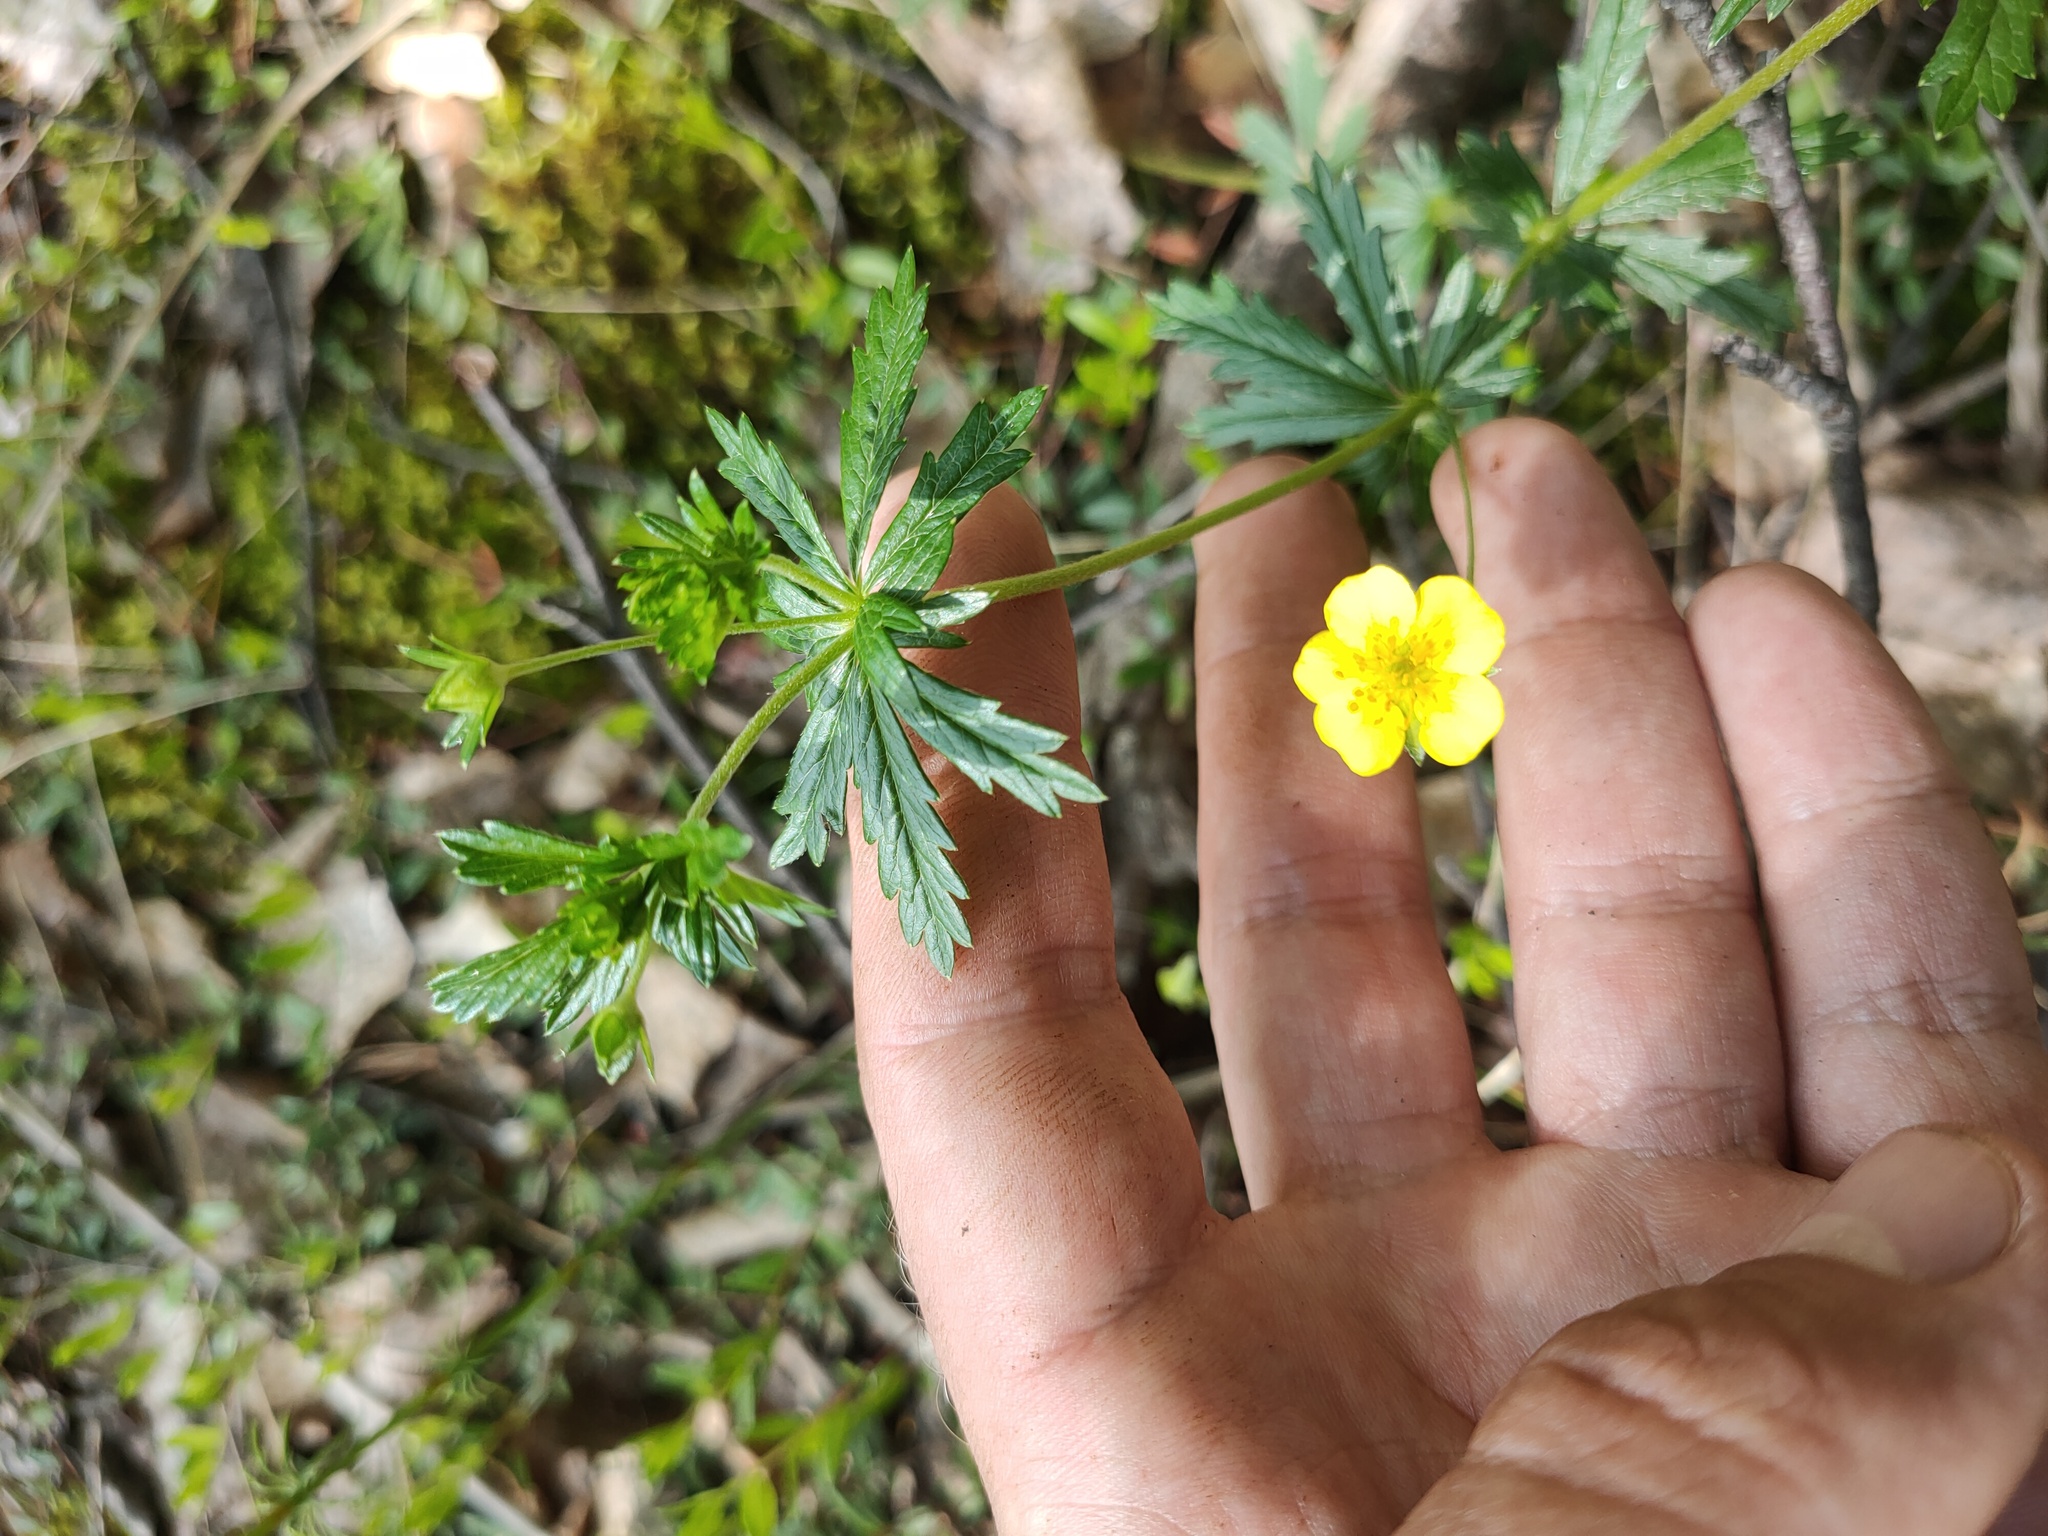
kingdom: Plantae
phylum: Tracheophyta
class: Magnoliopsida
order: Rosales
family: Rosaceae
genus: Potentilla
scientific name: Potentilla argentea
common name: Hoary cinquefoil
